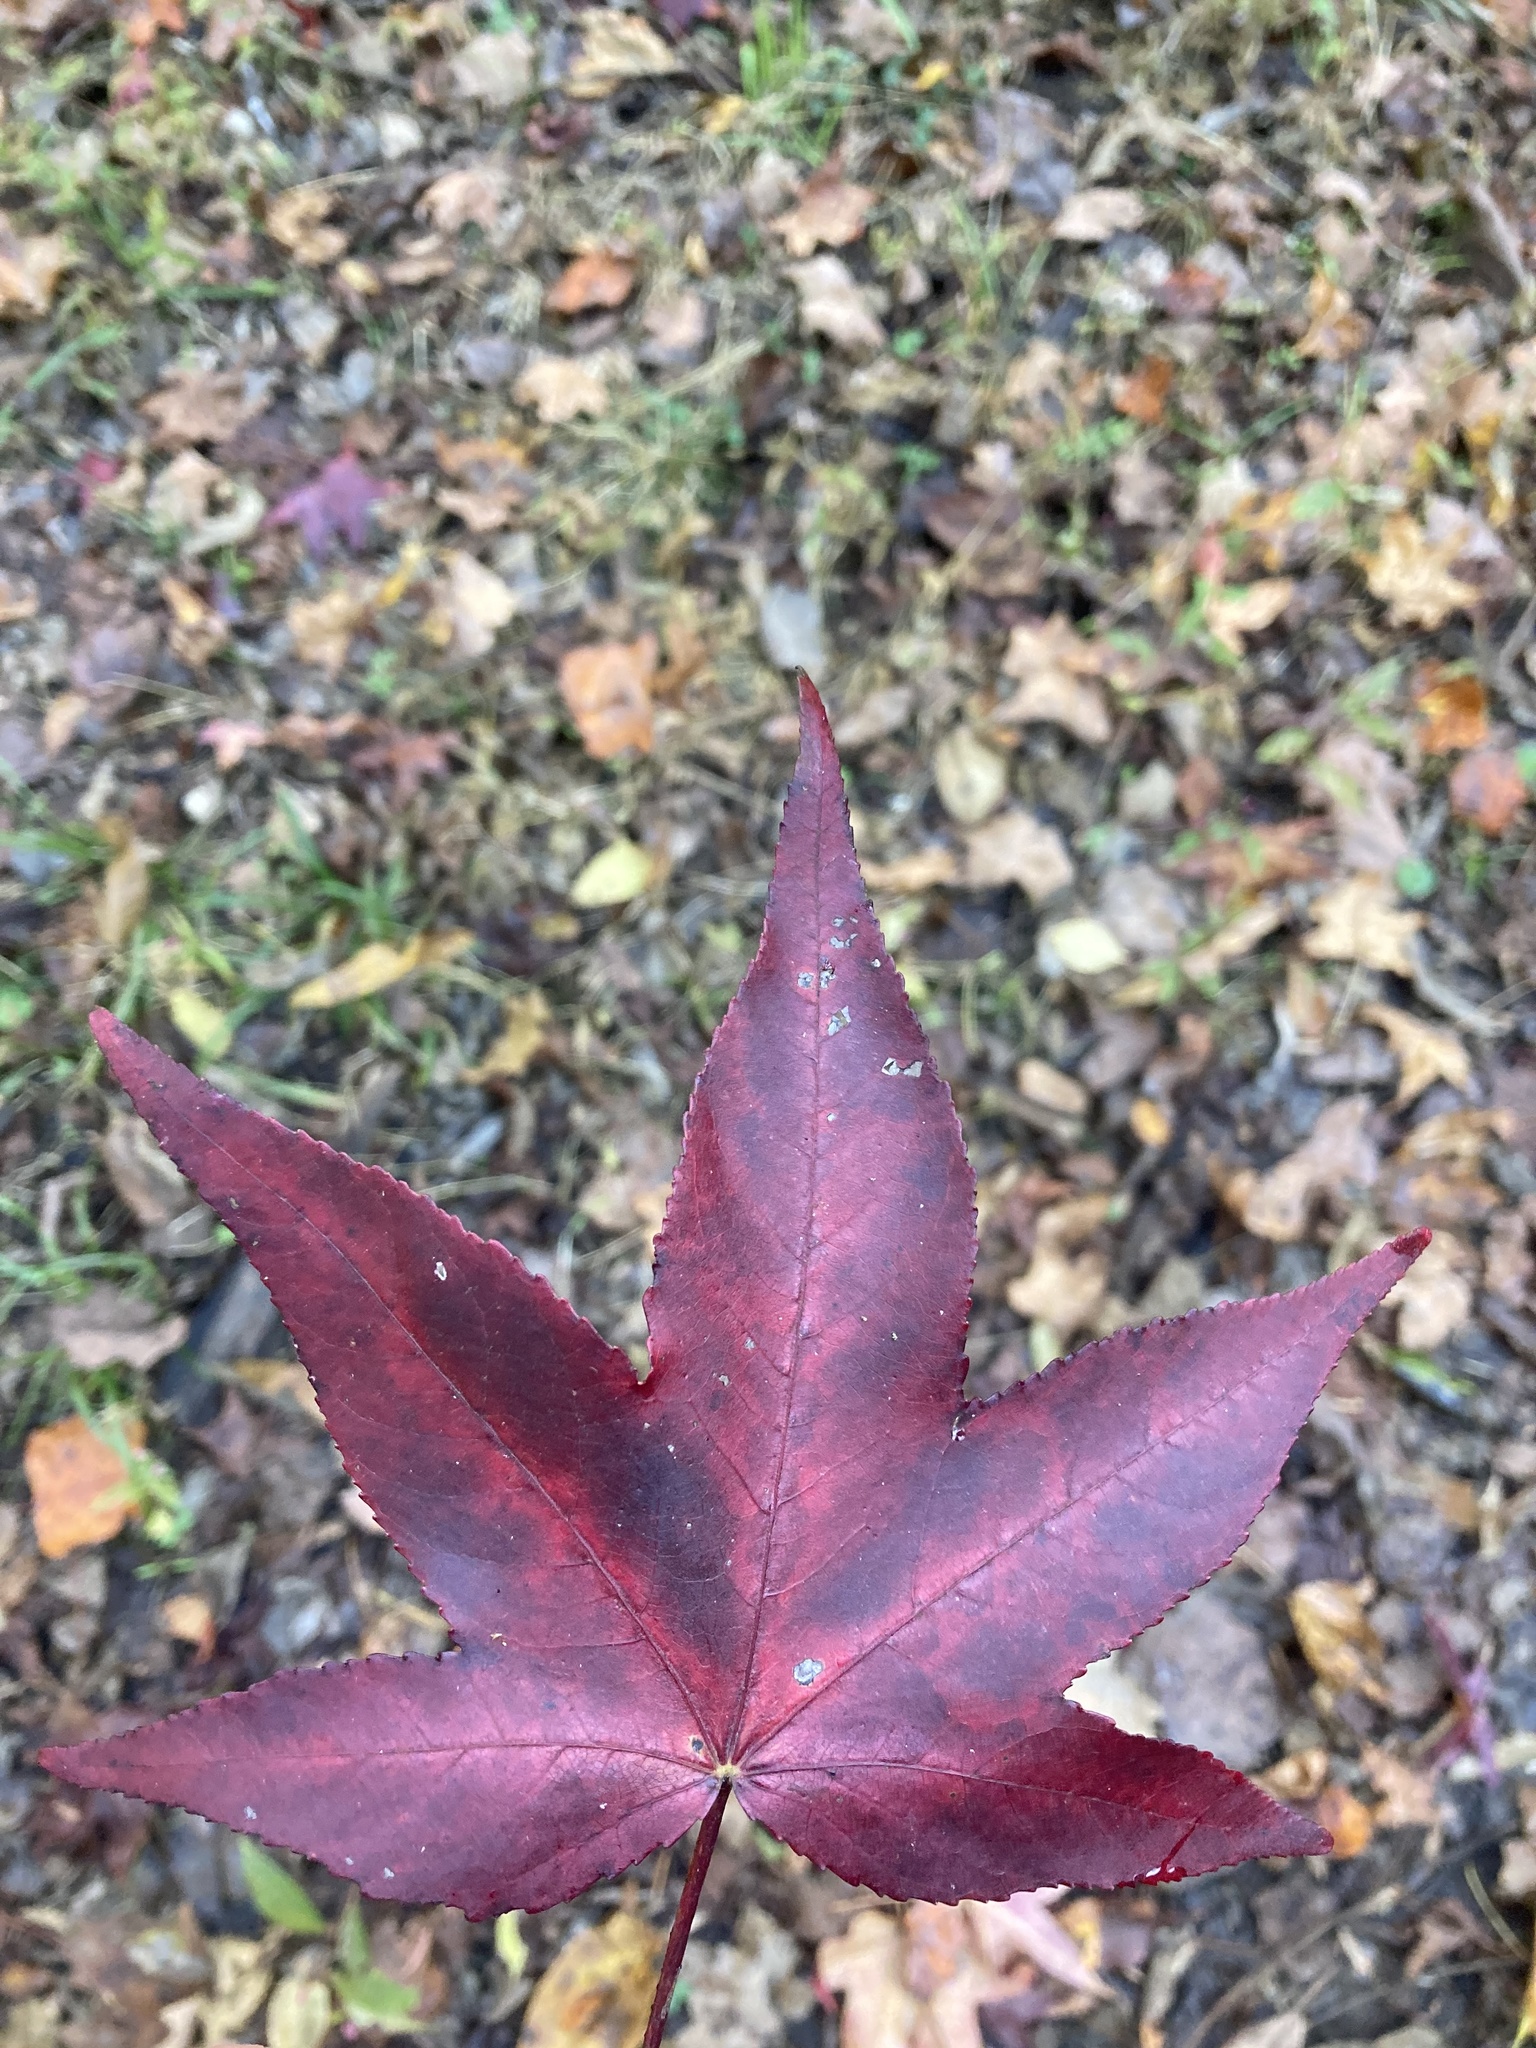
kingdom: Plantae
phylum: Tracheophyta
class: Magnoliopsida
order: Saxifragales
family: Altingiaceae
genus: Liquidambar
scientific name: Liquidambar styraciflua
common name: Sweet gum
